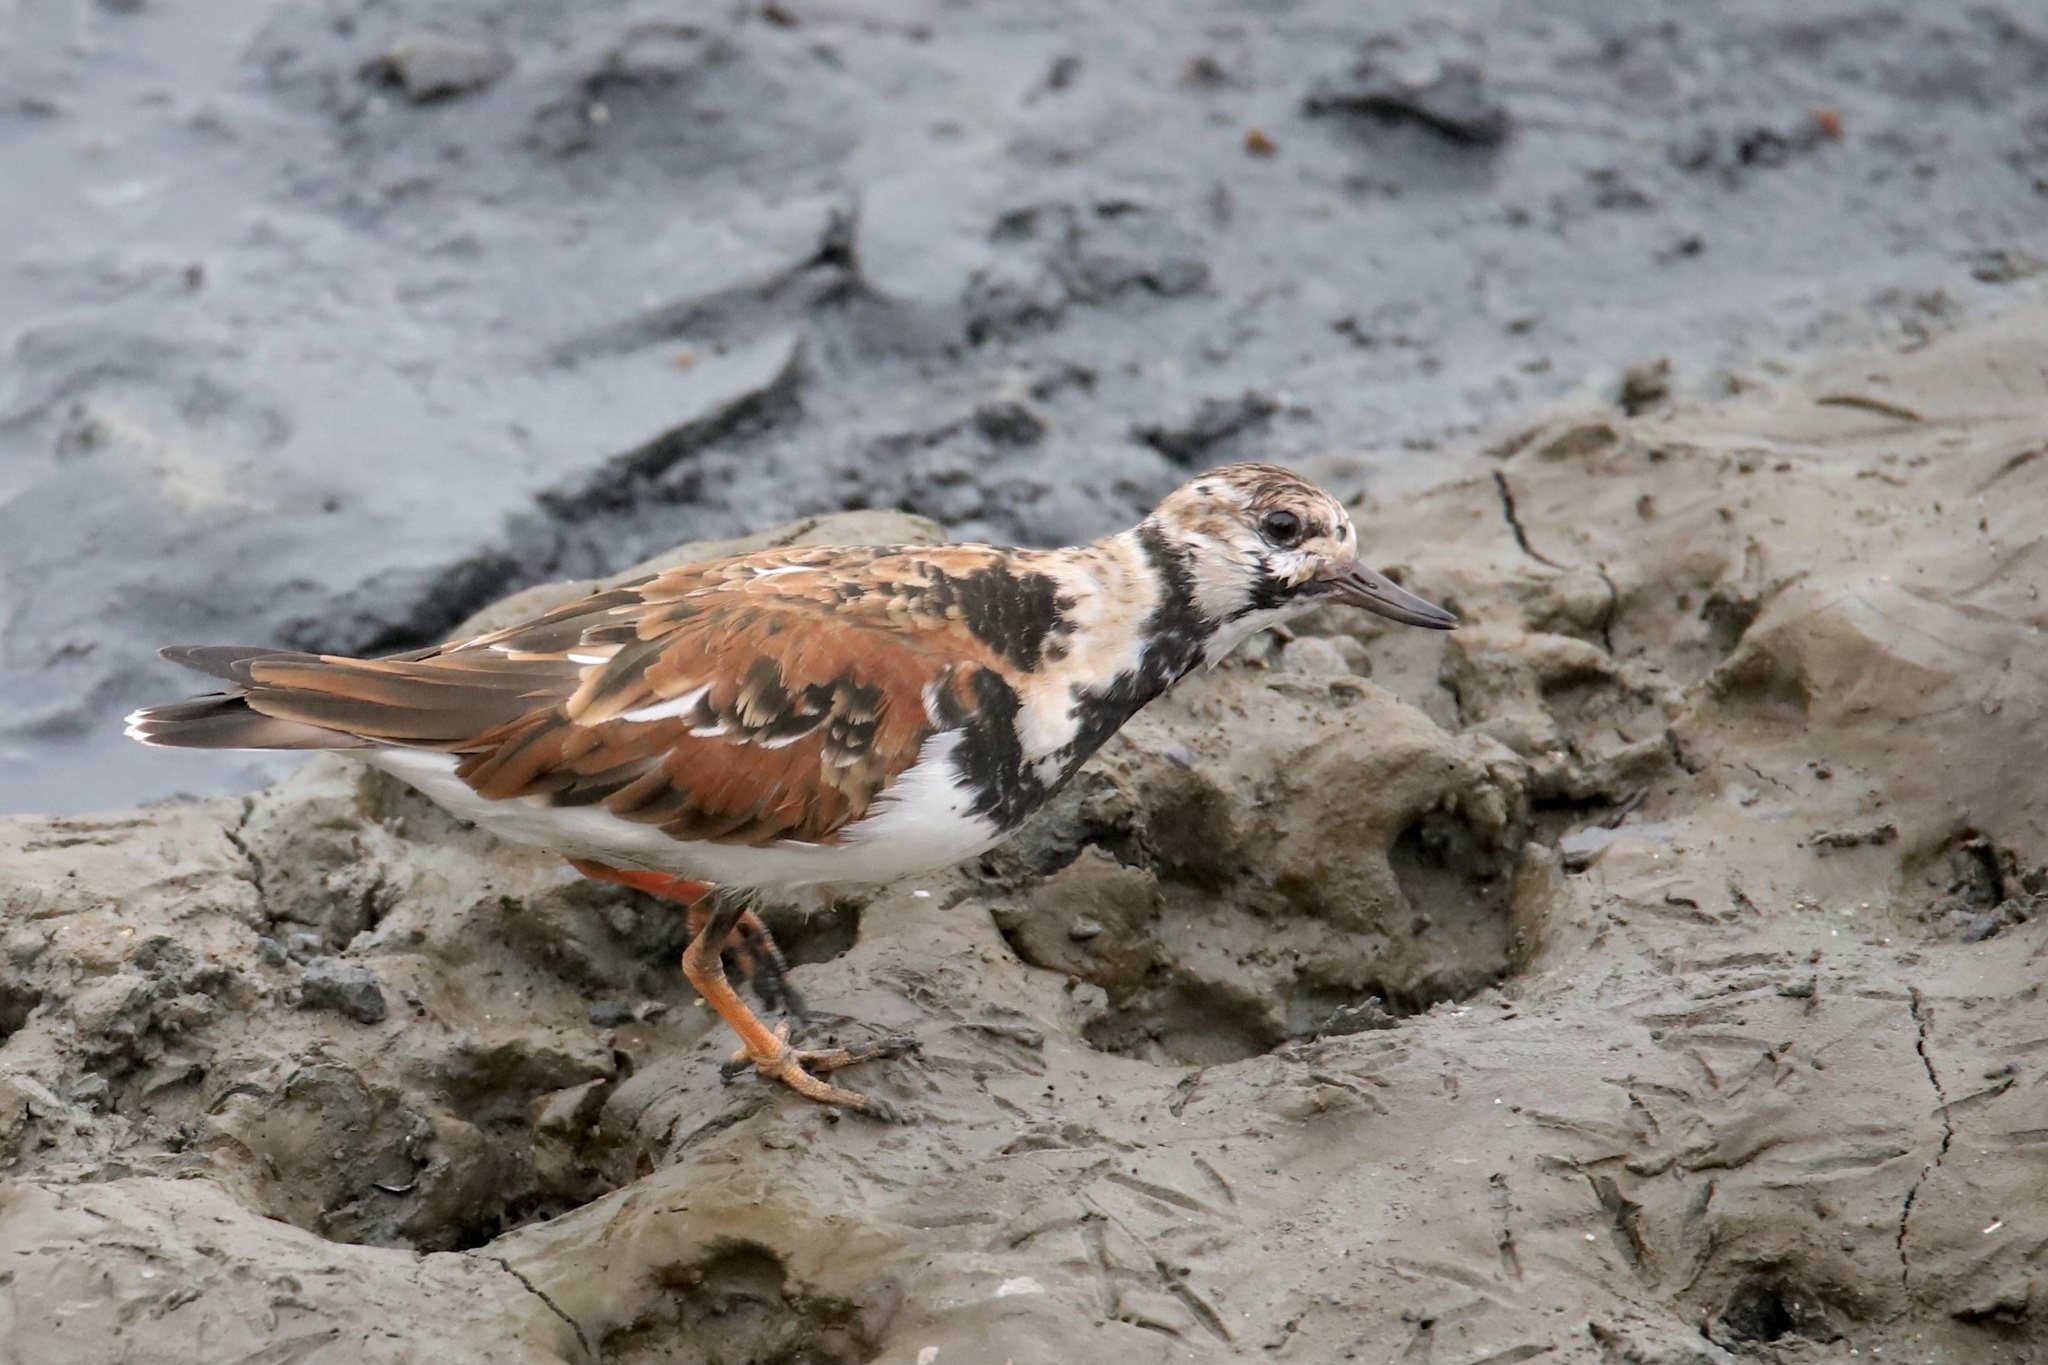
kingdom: Animalia
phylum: Chordata
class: Aves
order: Charadriiformes
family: Scolopacidae
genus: Arenaria
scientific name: Arenaria interpres
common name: Ruddy turnstone
